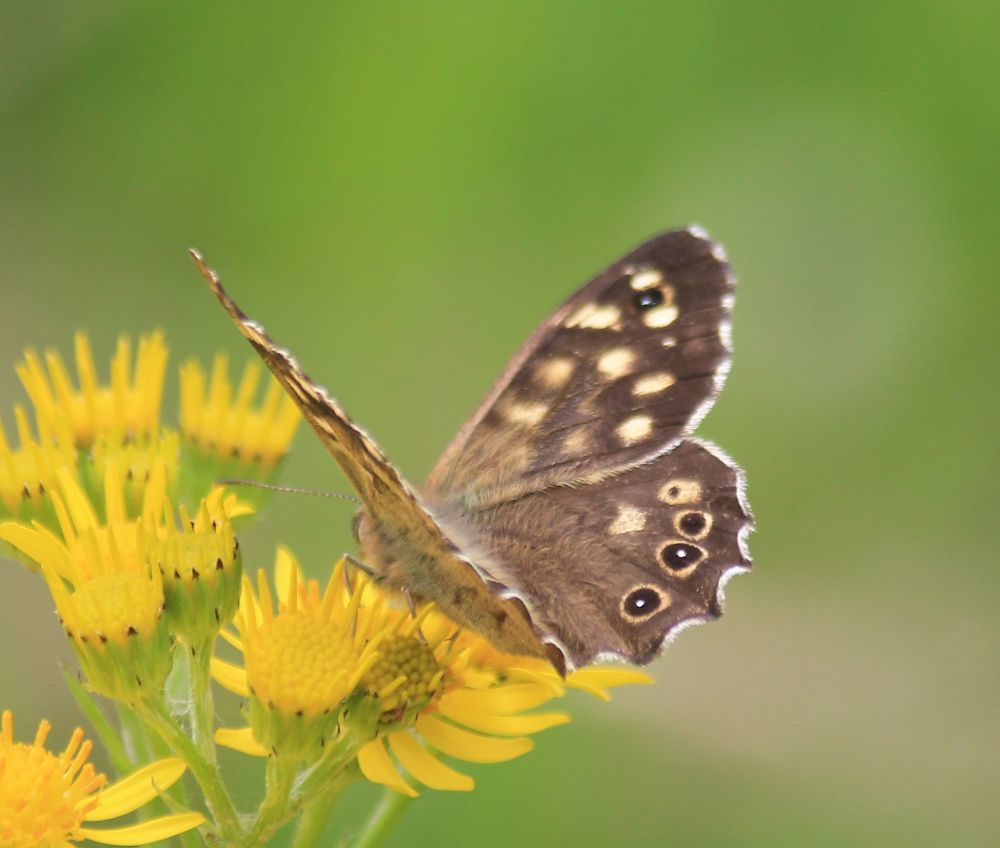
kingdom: Animalia
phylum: Arthropoda
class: Insecta
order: Lepidoptera
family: Nymphalidae
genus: Pararge
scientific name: Pararge aegeria
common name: Speckled wood
